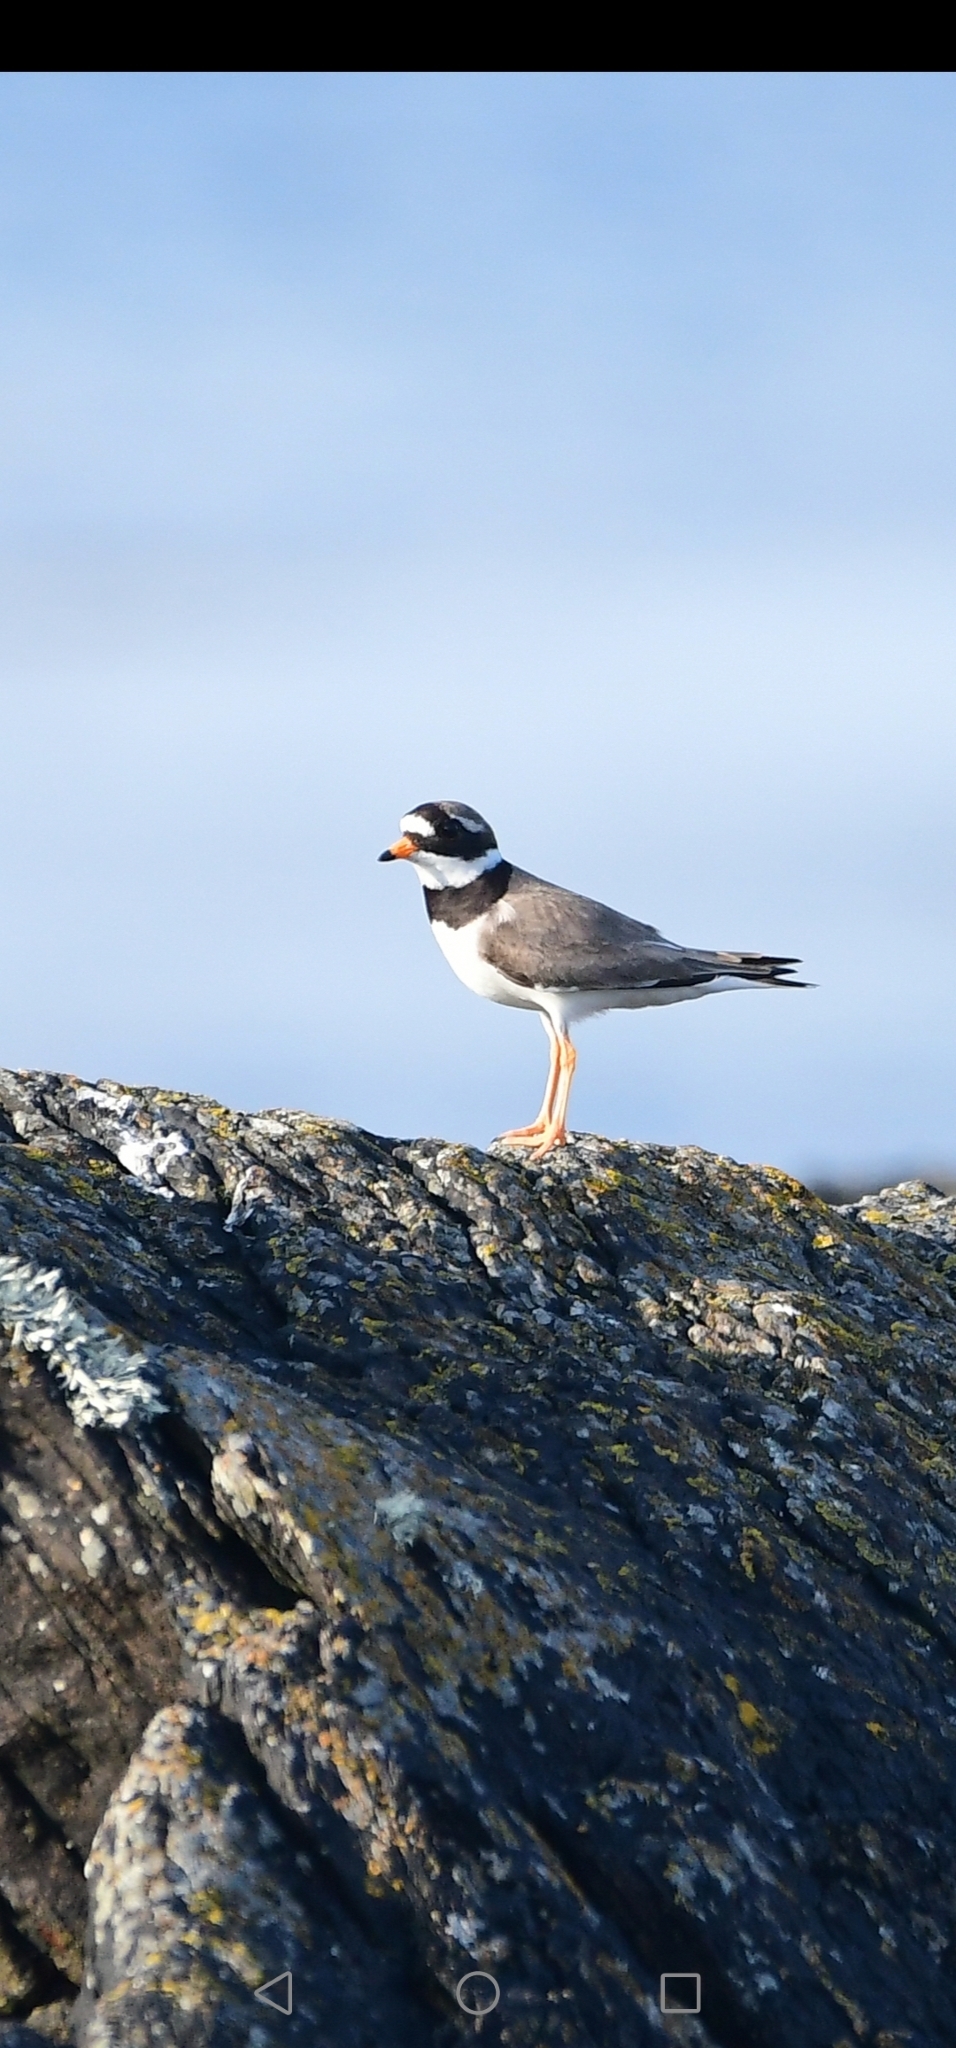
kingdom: Animalia
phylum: Chordata
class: Aves
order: Charadriiformes
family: Charadriidae
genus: Charadrius
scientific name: Charadrius hiaticula
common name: Common ringed plover
